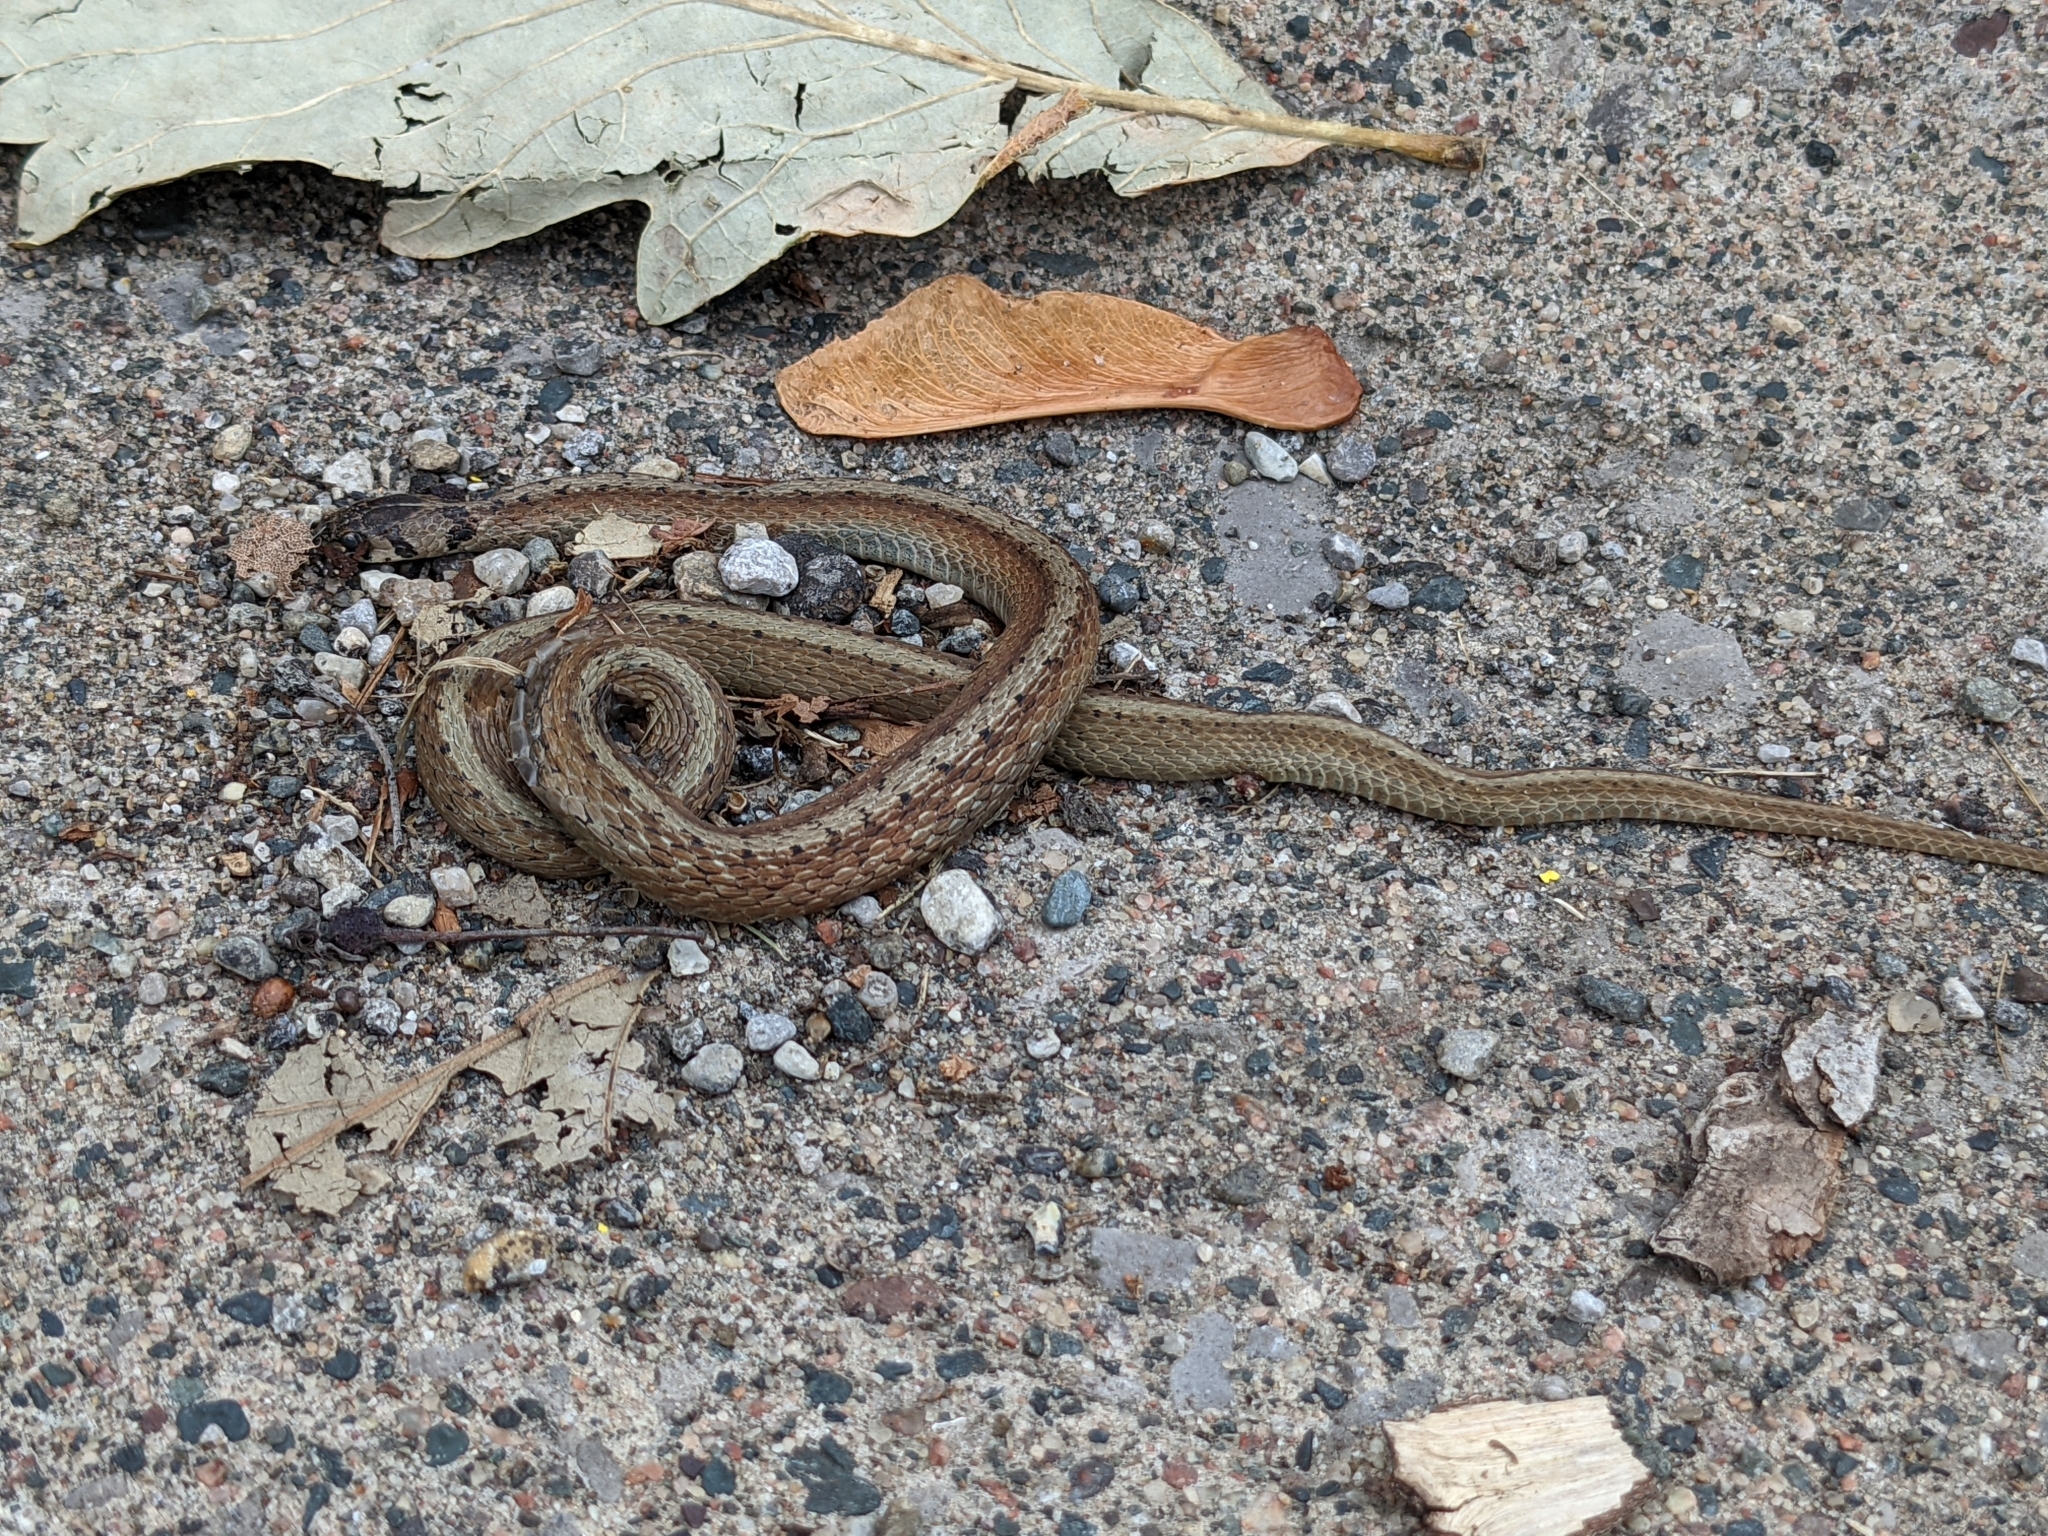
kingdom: Animalia
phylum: Chordata
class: Squamata
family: Colubridae
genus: Storeria
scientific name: Storeria dekayi
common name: (dekay’s) brown snake
